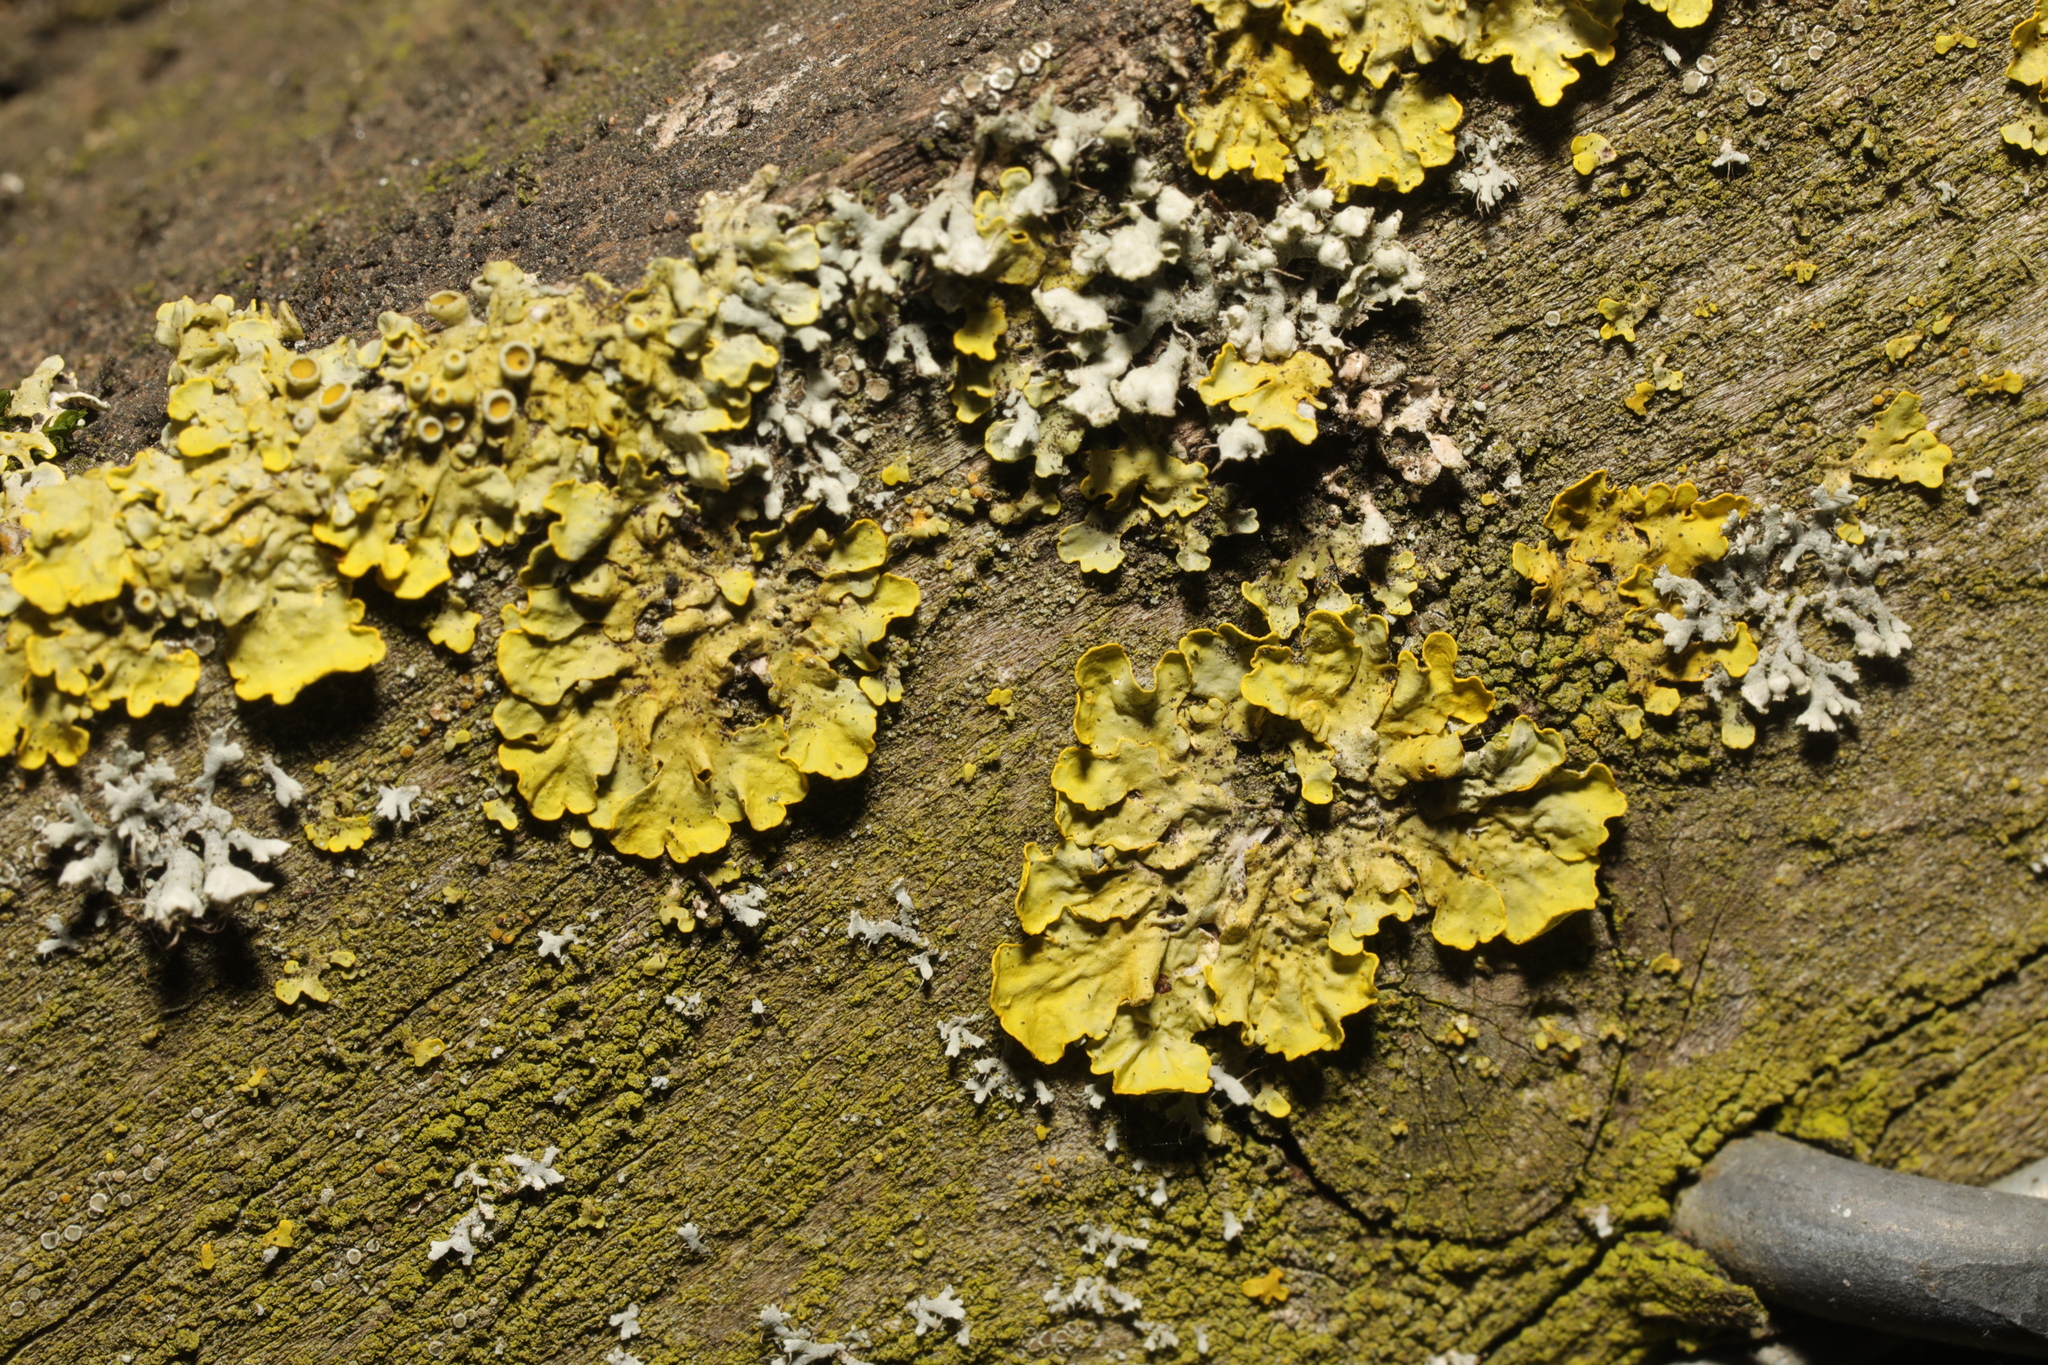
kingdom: Fungi
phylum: Ascomycota
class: Lecanoromycetes
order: Teloschistales
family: Teloschistaceae
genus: Xanthoria
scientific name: Xanthoria parietina
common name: Common orange lichen
